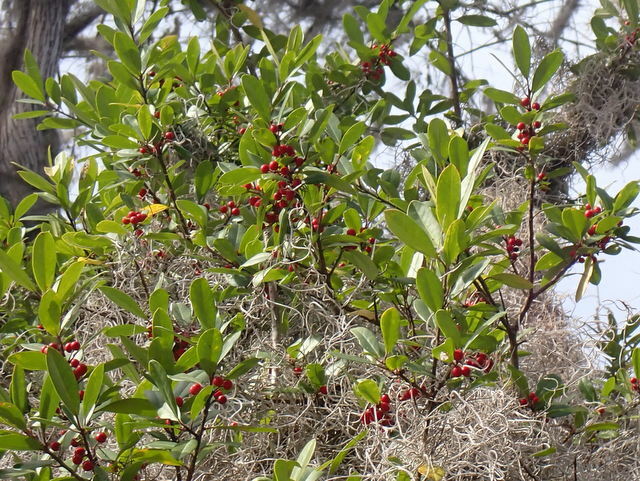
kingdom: Plantae
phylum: Tracheophyta
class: Magnoliopsida
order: Aquifoliales
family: Aquifoliaceae
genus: Ilex
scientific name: Ilex cassine
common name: Dahoon
